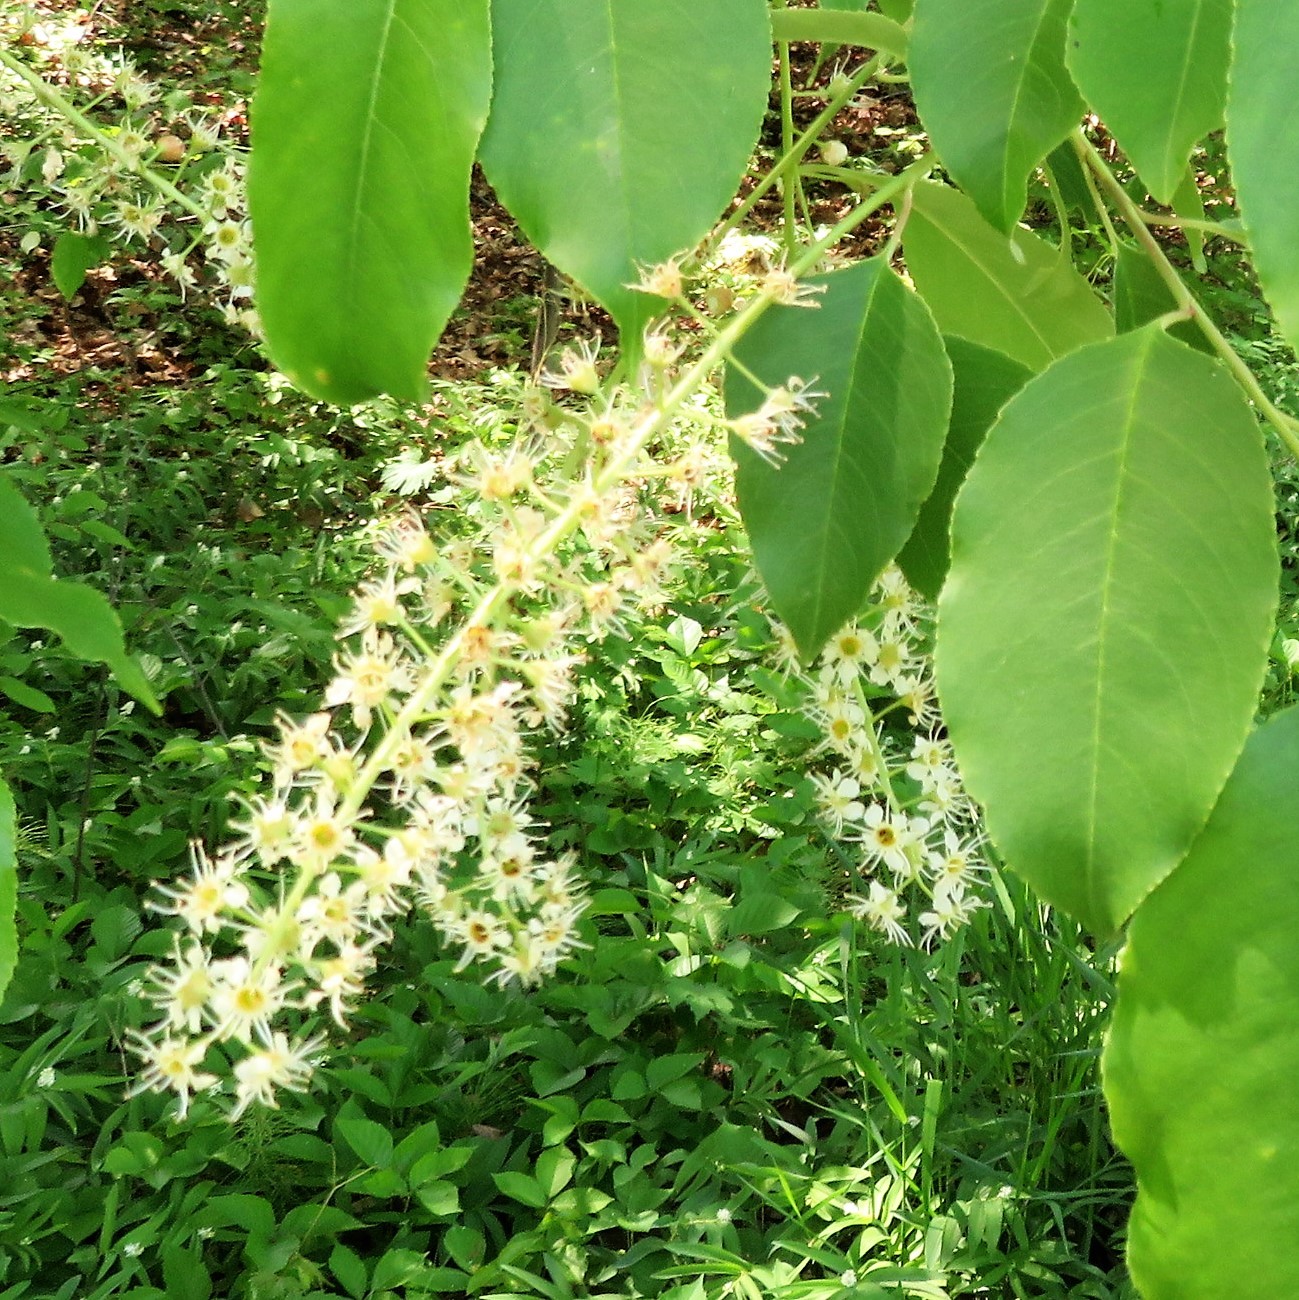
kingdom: Plantae
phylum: Tracheophyta
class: Magnoliopsida
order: Rosales
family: Rosaceae
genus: Prunus
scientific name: Prunus serotina
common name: Black cherry
